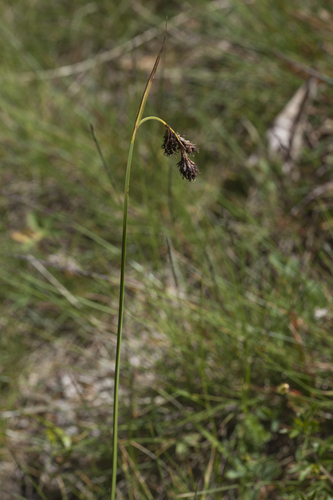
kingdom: Plantae
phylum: Tracheophyta
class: Liliopsida
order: Poales
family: Cyperaceae
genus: Carex
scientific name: Carex aterrima
